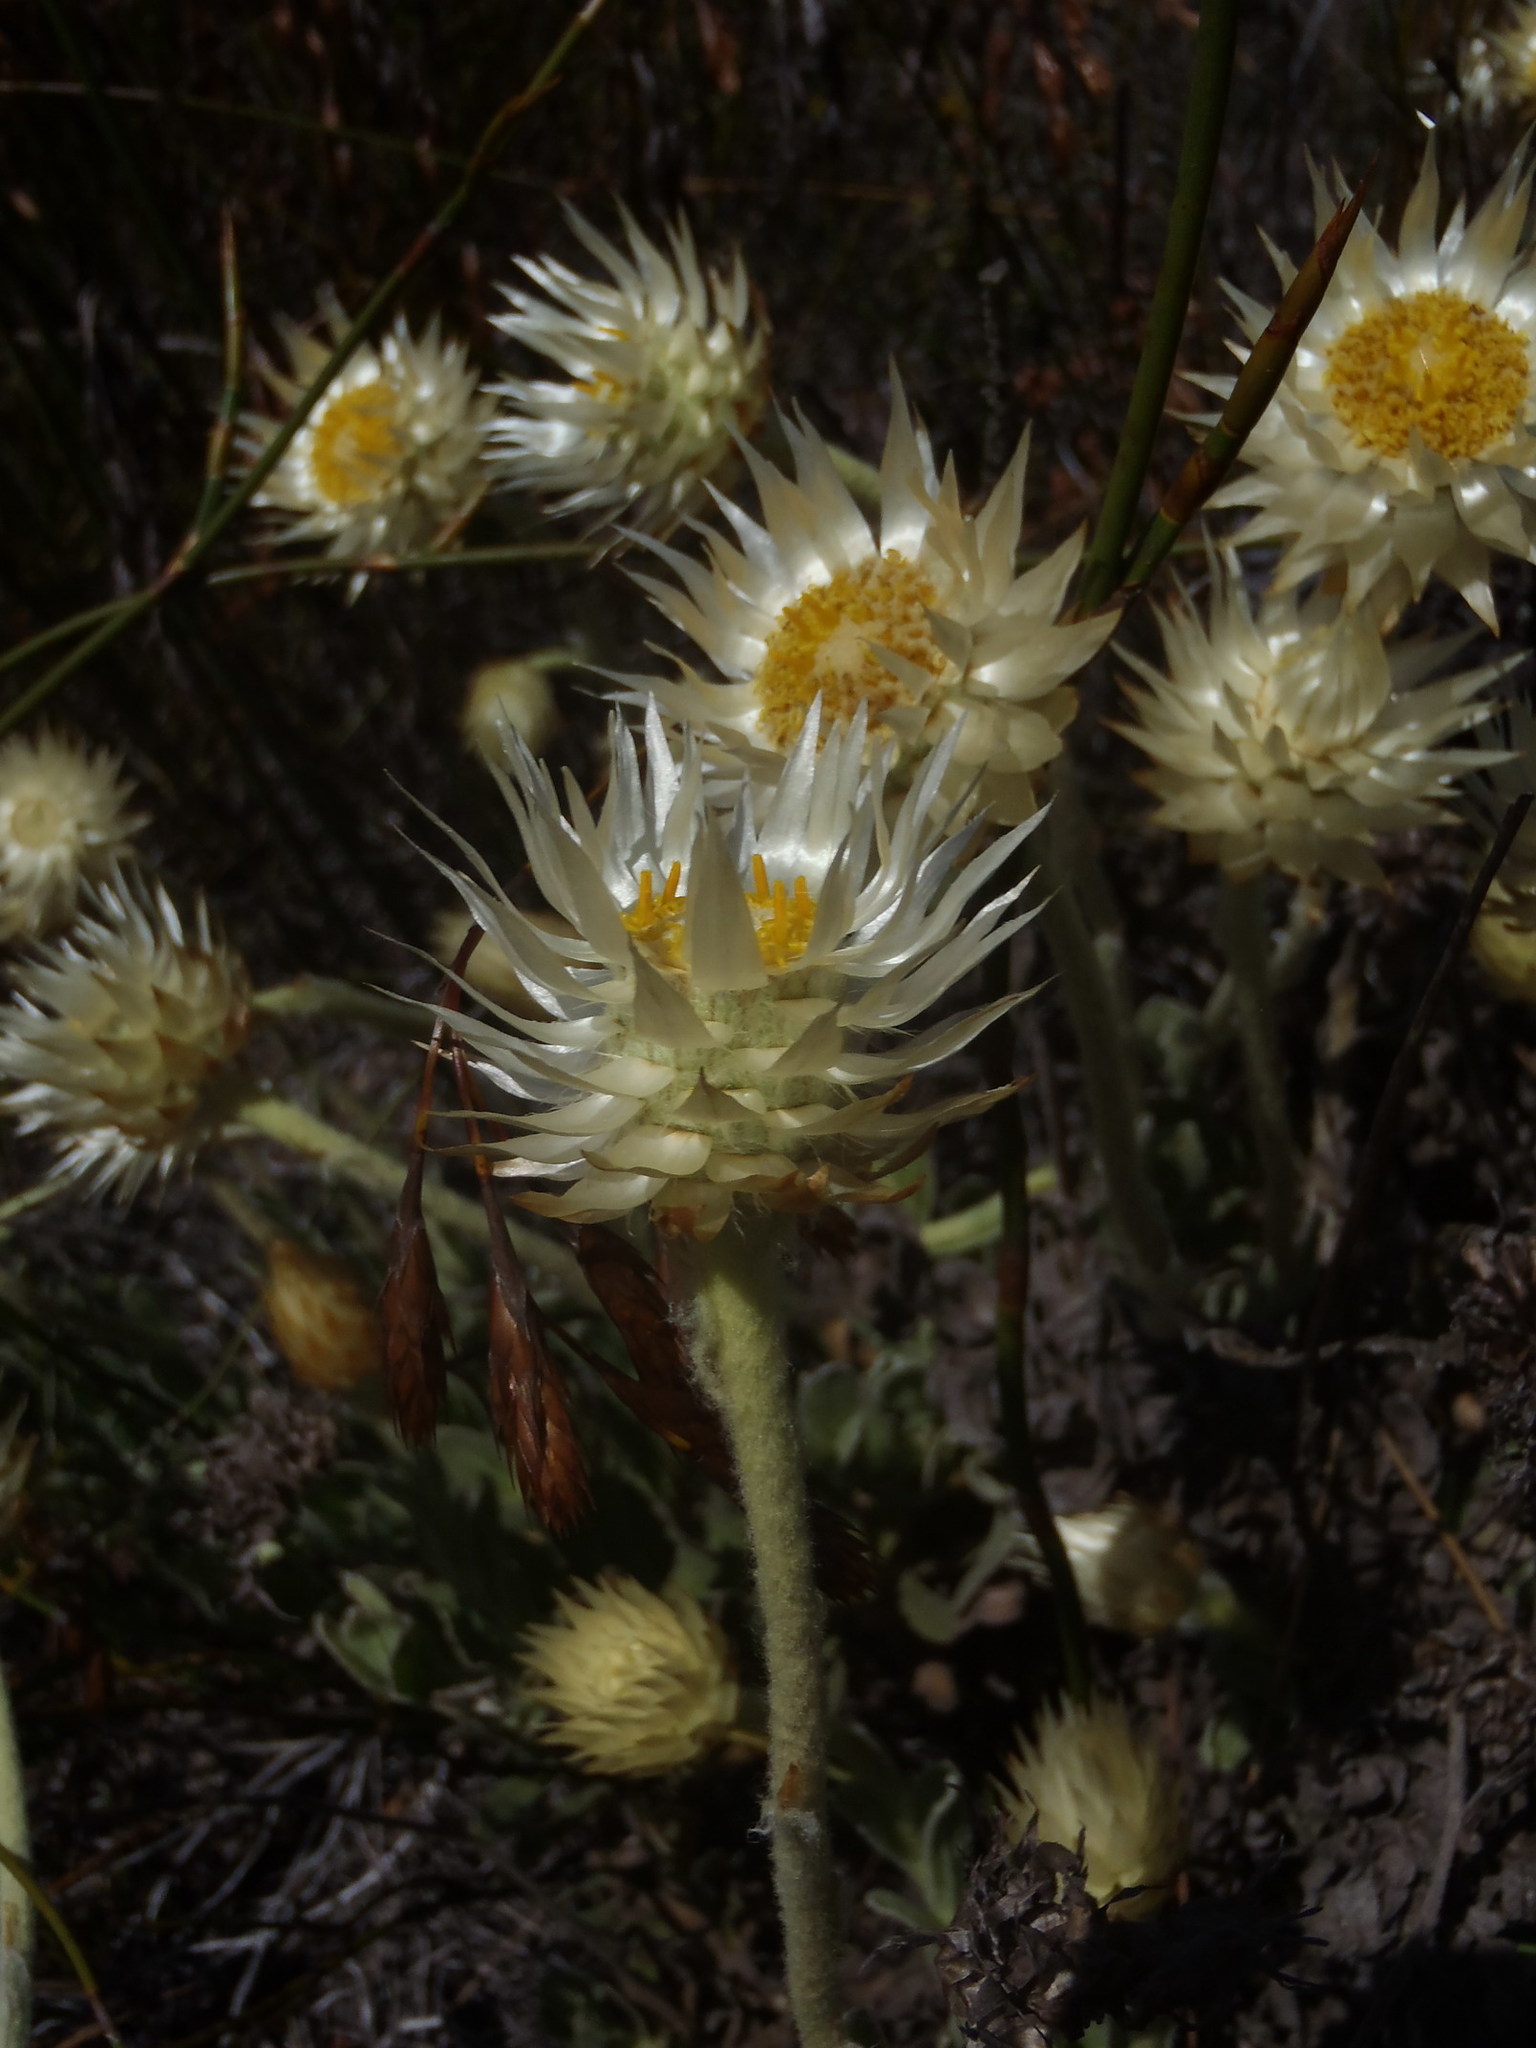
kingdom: Plantae
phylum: Tracheophyta
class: Magnoliopsida
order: Asterales
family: Asteraceae
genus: Syncarpha
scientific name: Syncarpha speciosissima
